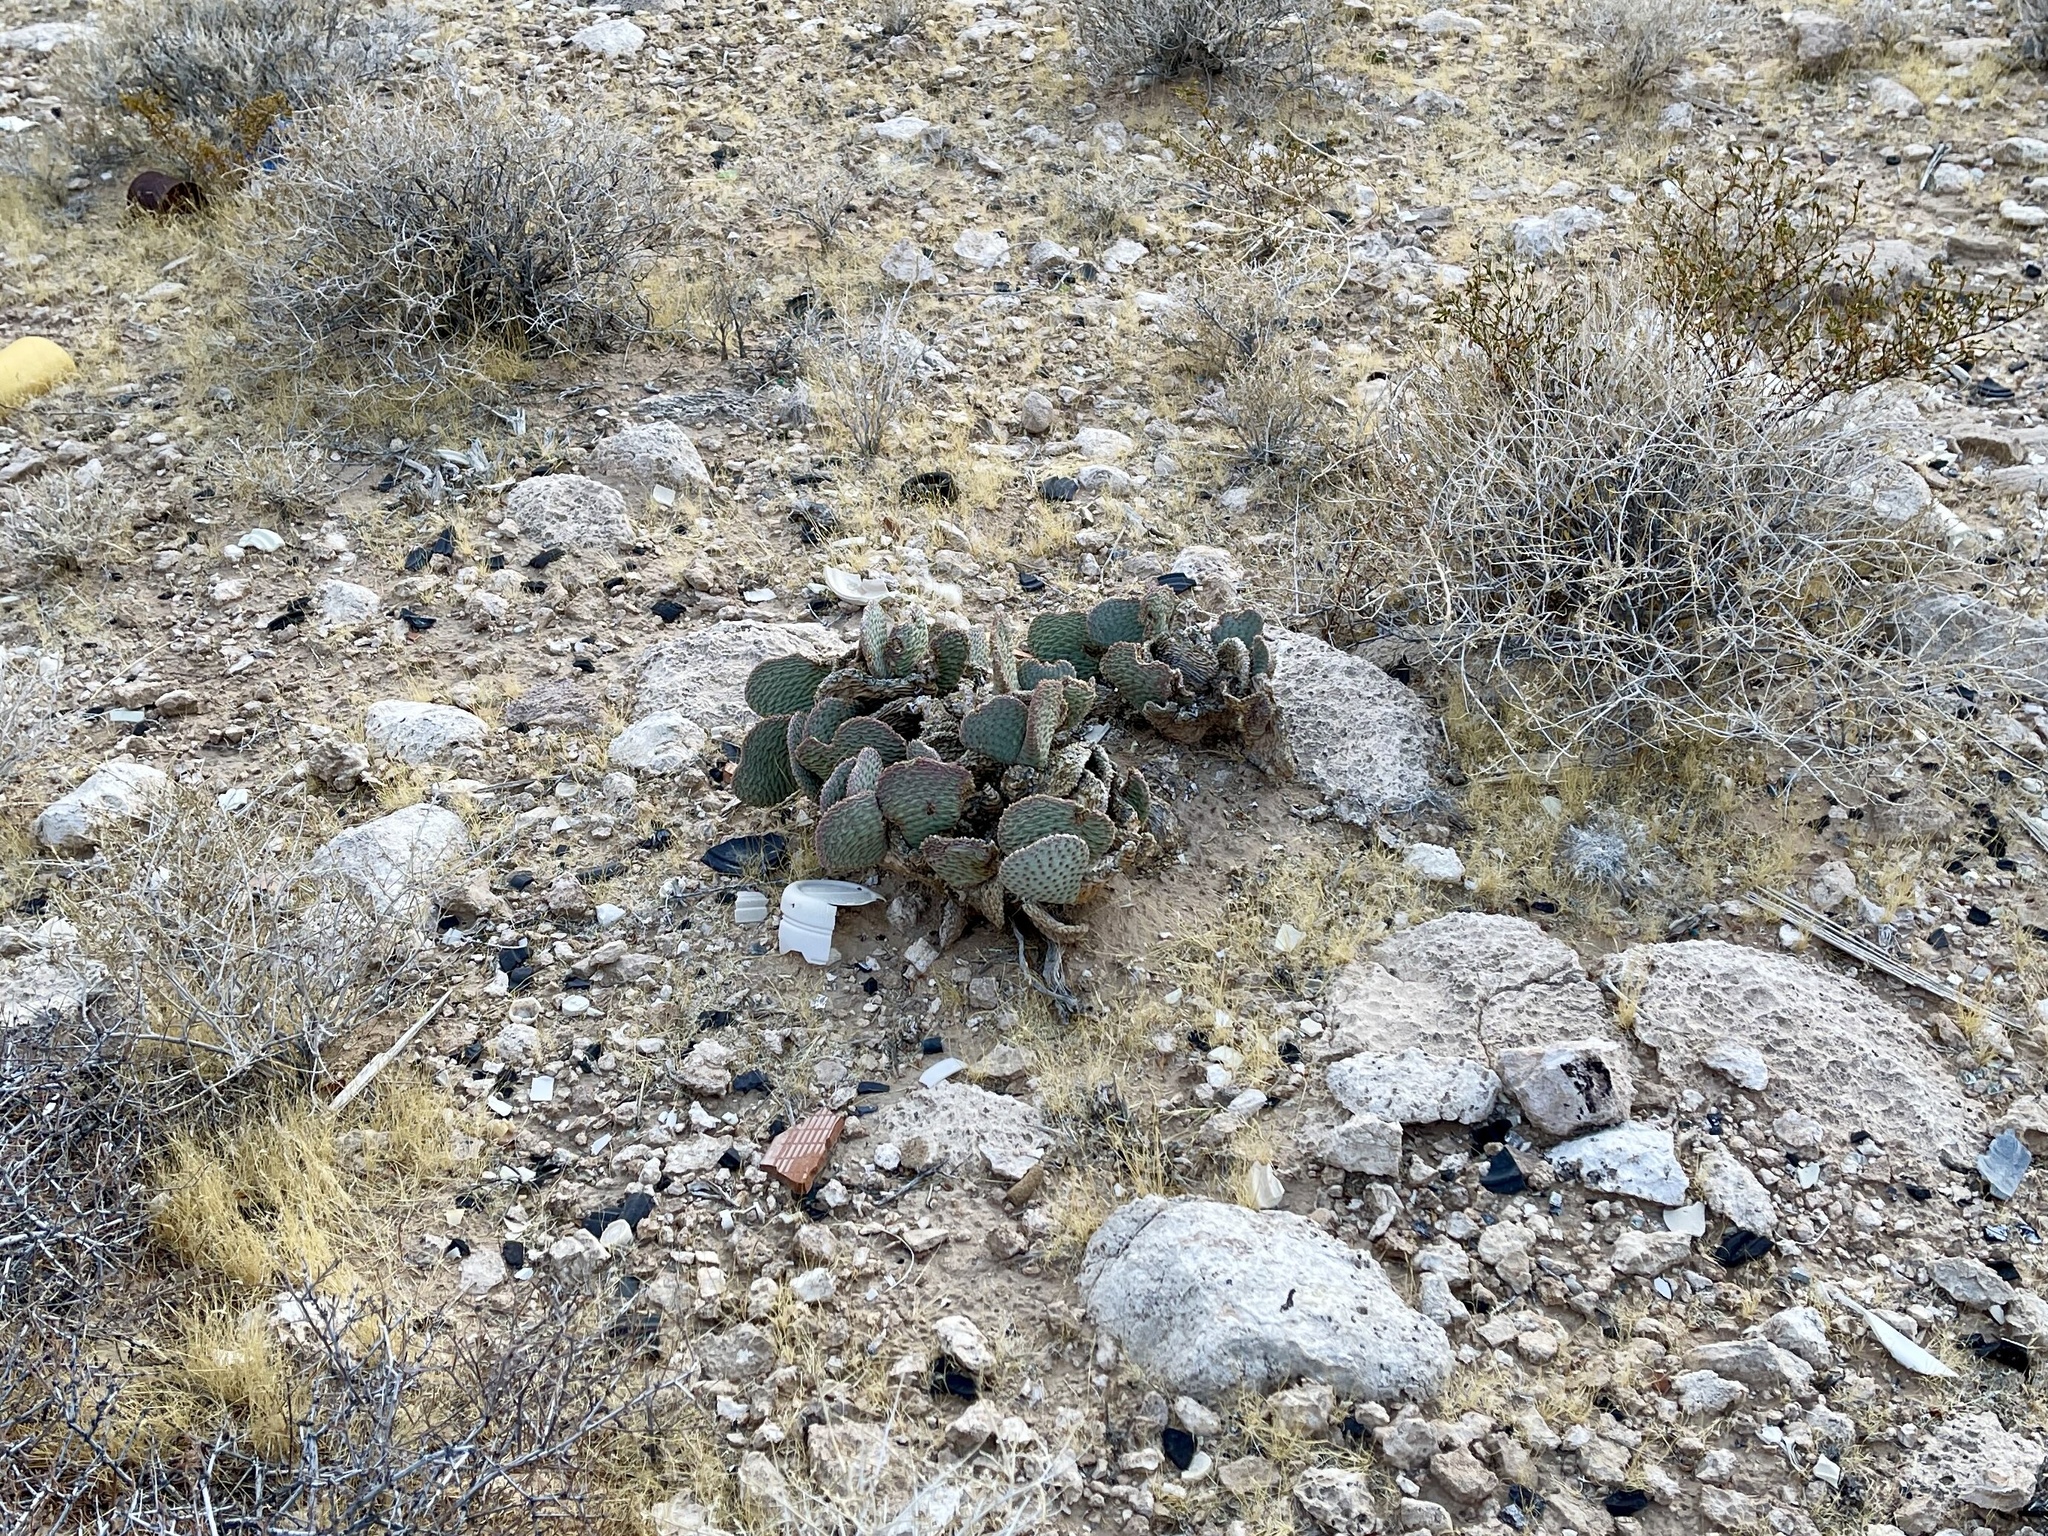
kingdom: Plantae
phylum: Tracheophyta
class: Magnoliopsida
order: Caryophyllales
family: Cactaceae
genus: Opuntia
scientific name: Opuntia basilaris
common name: Beavertail prickly-pear
